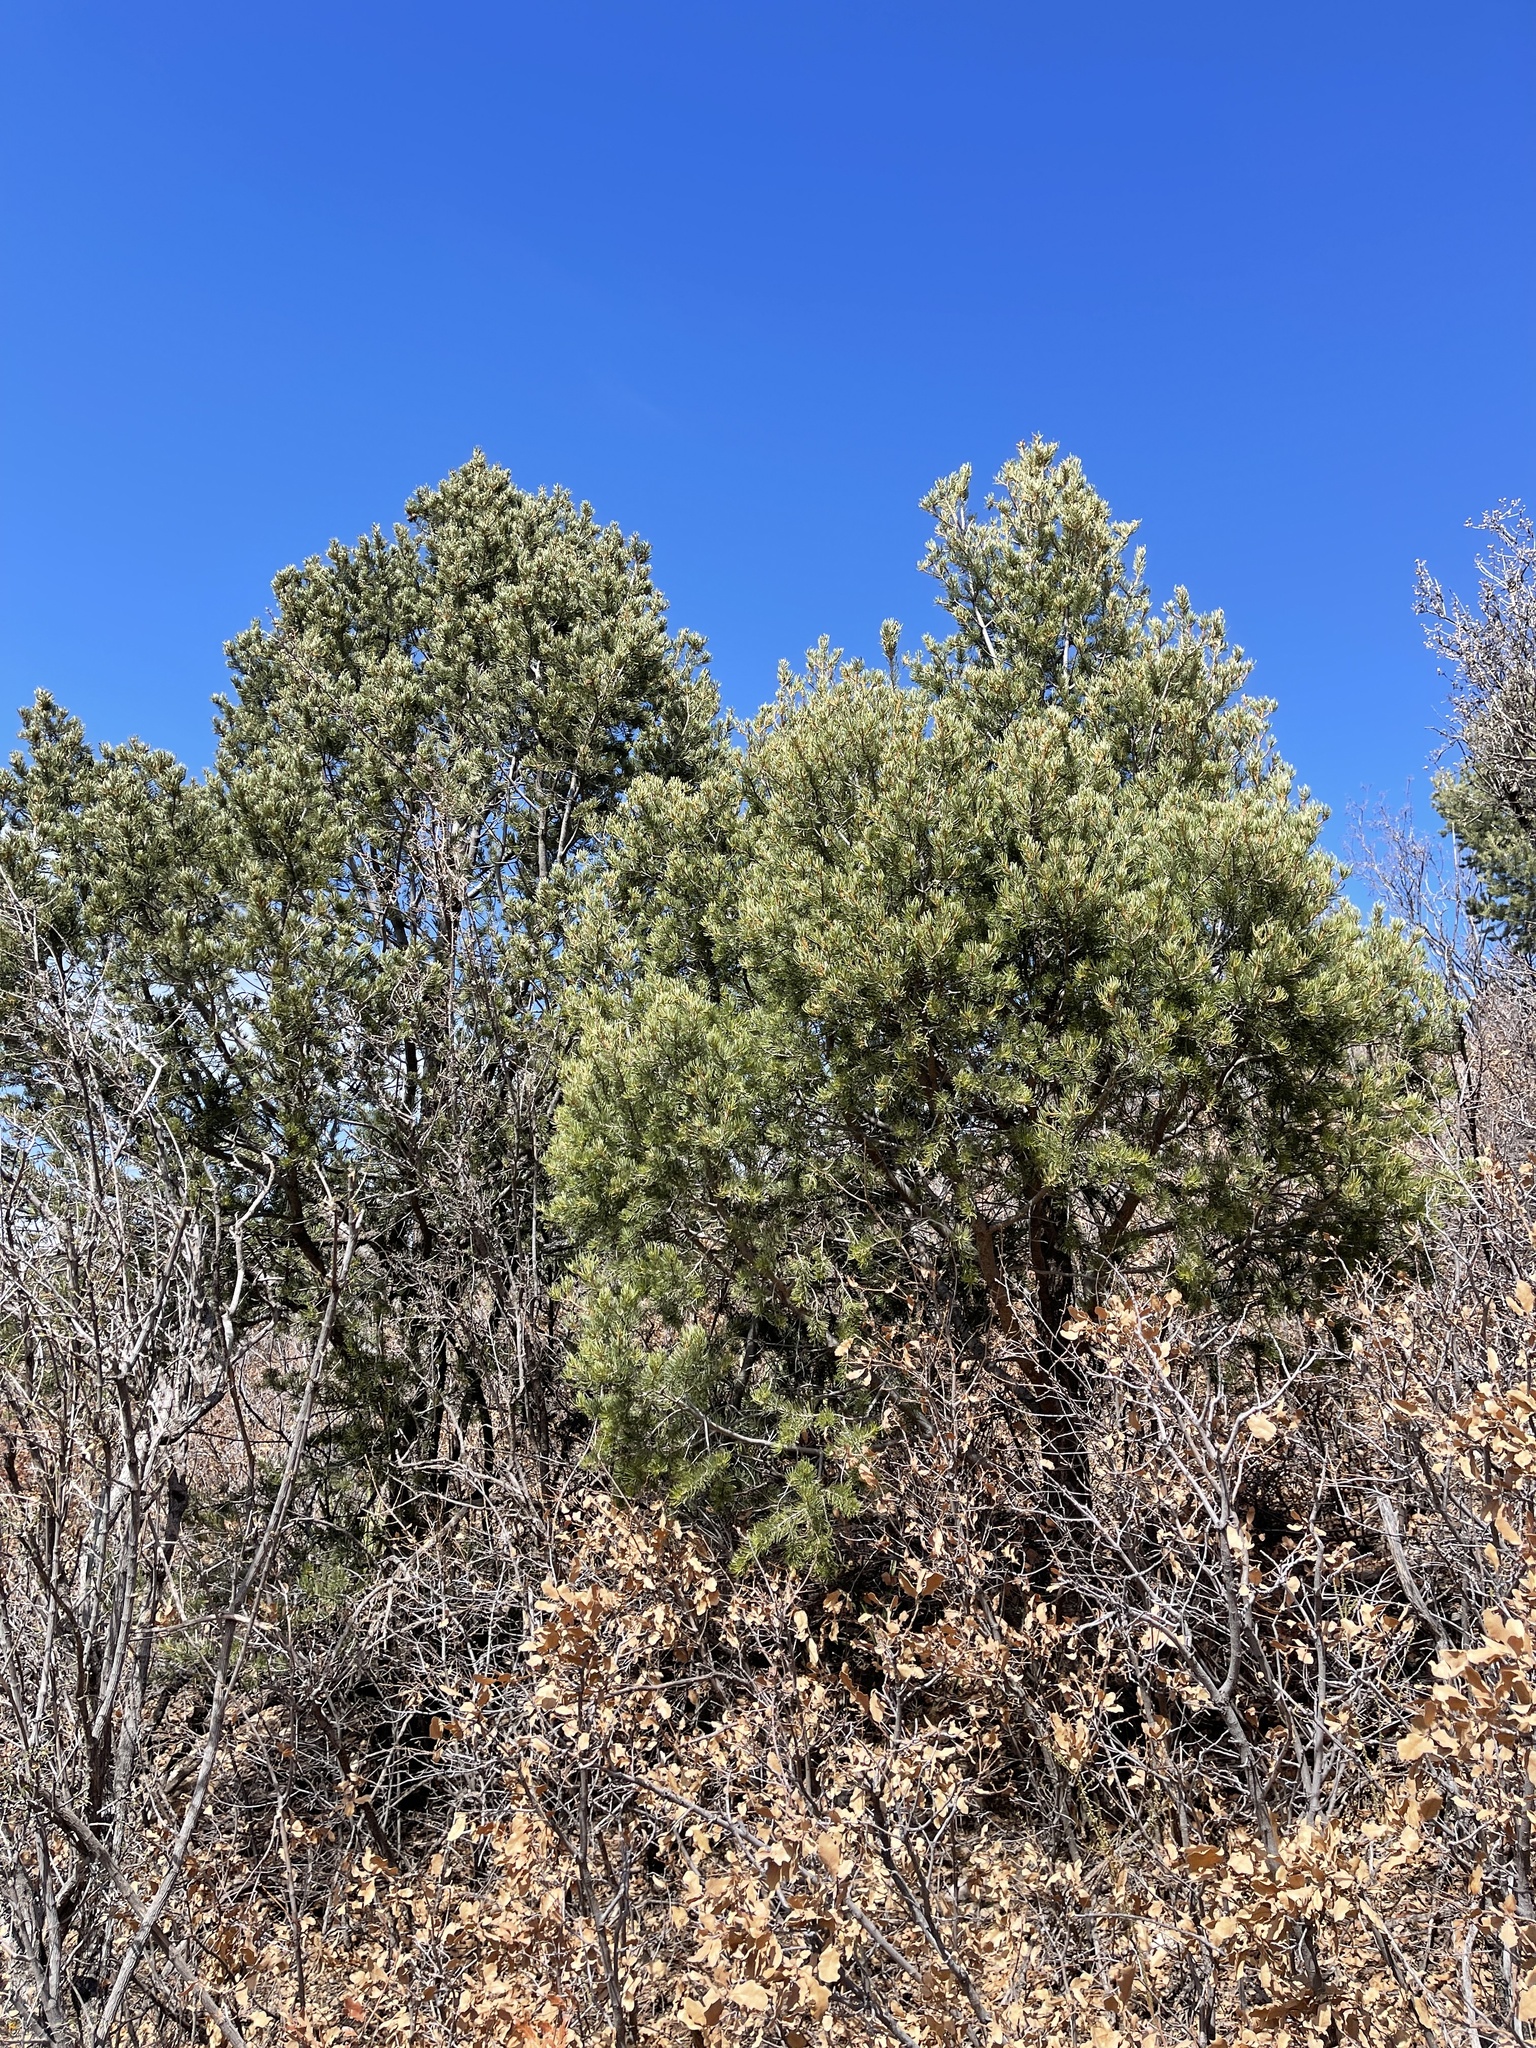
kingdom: Plantae
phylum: Tracheophyta
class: Pinopsida
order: Pinales
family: Pinaceae
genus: Pinus
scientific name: Pinus edulis
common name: Colorado pinyon
